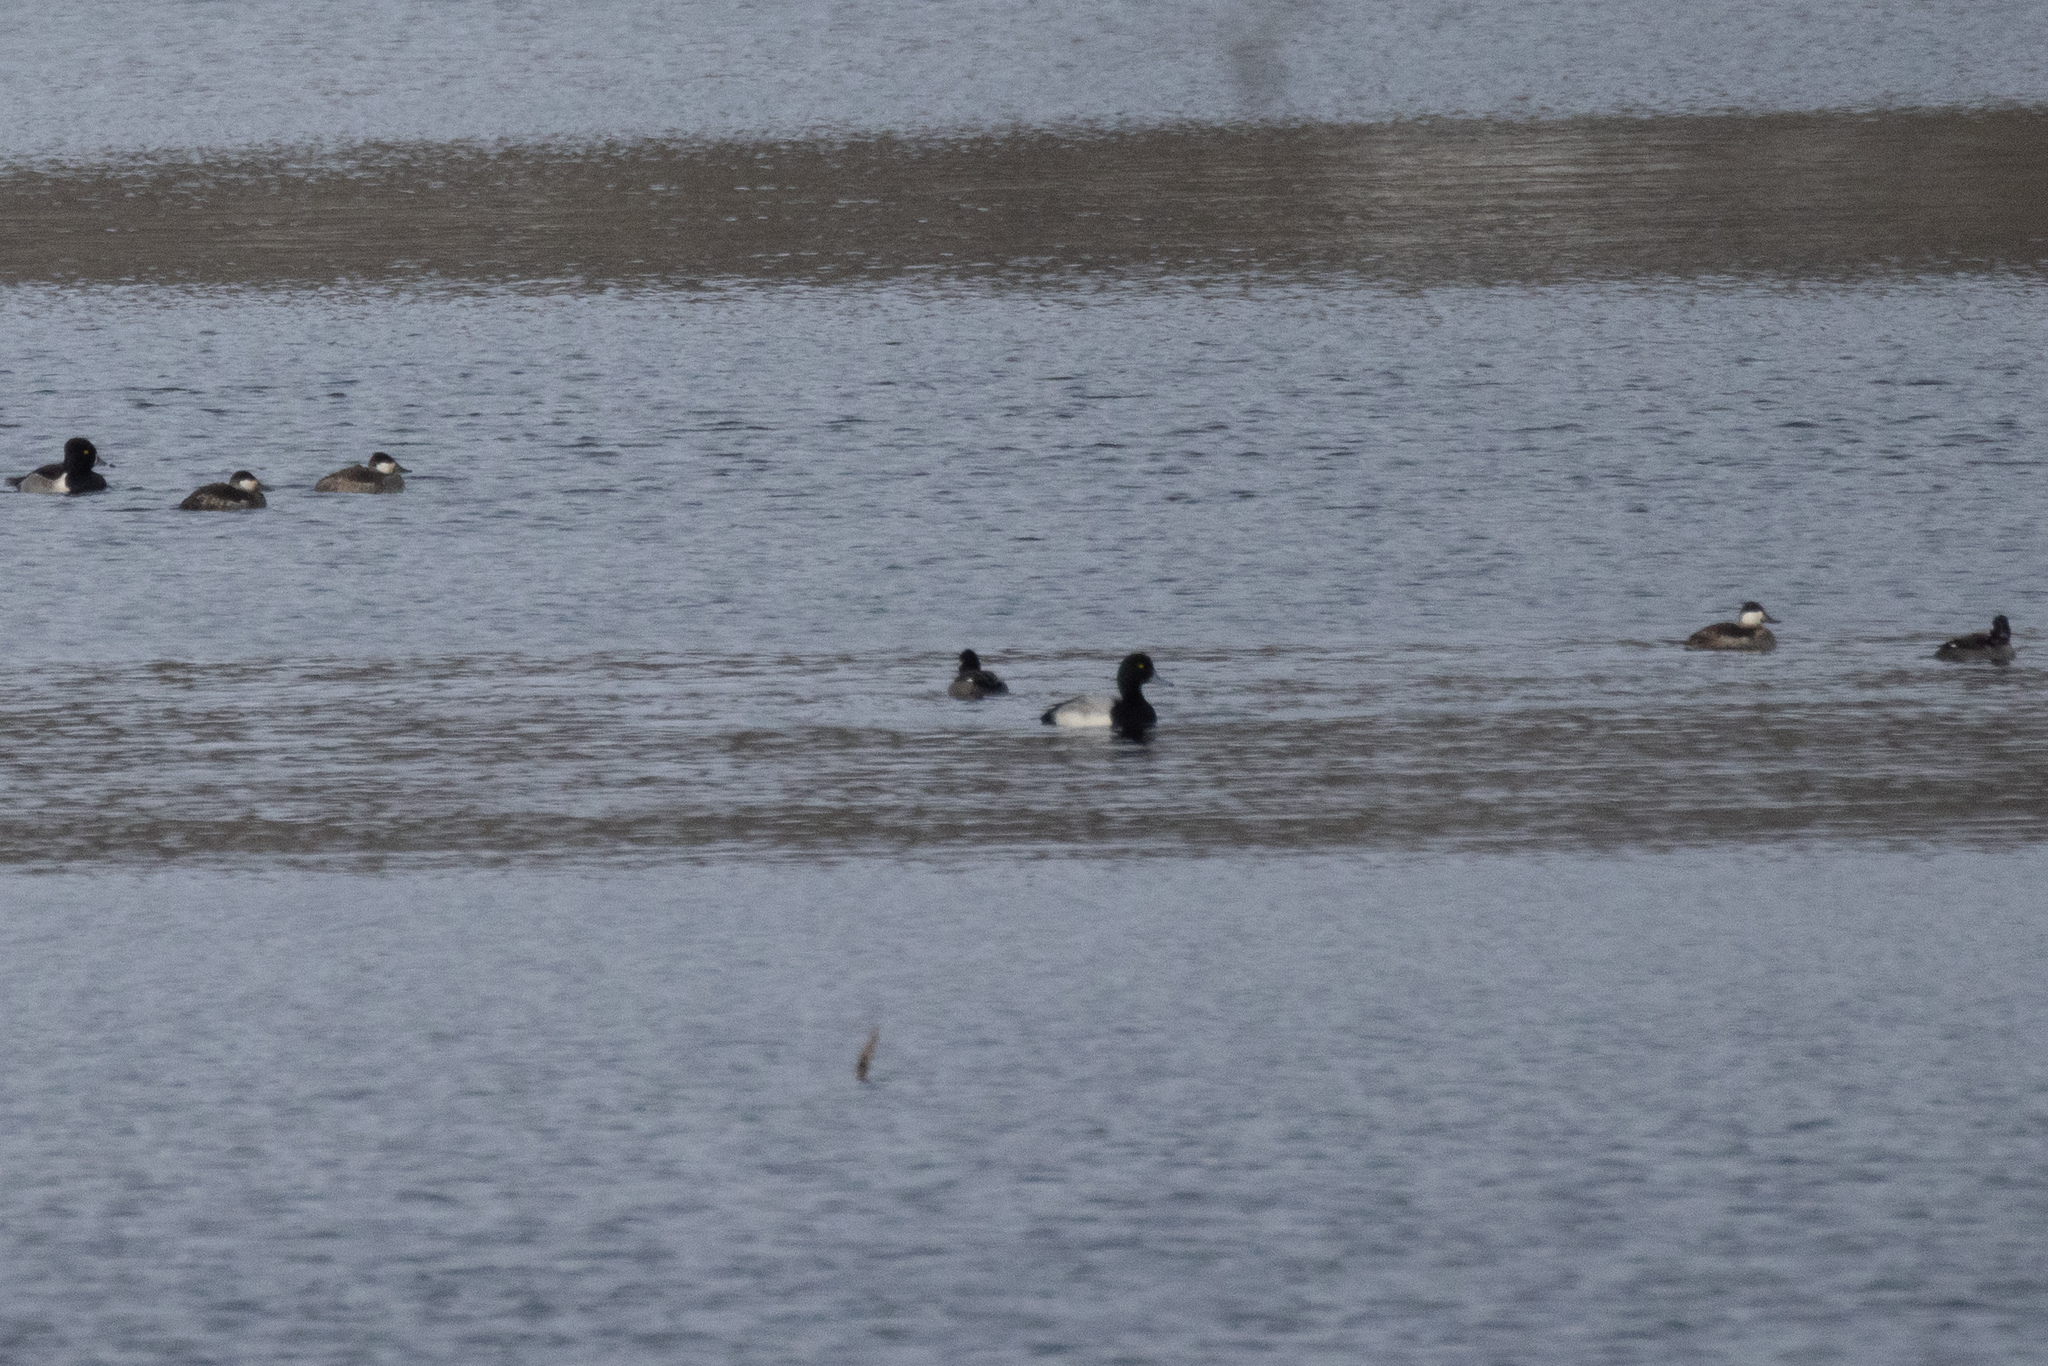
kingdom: Animalia
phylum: Chordata
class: Aves
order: Anseriformes
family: Anatidae
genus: Aythya
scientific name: Aythya marila
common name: Greater scaup
